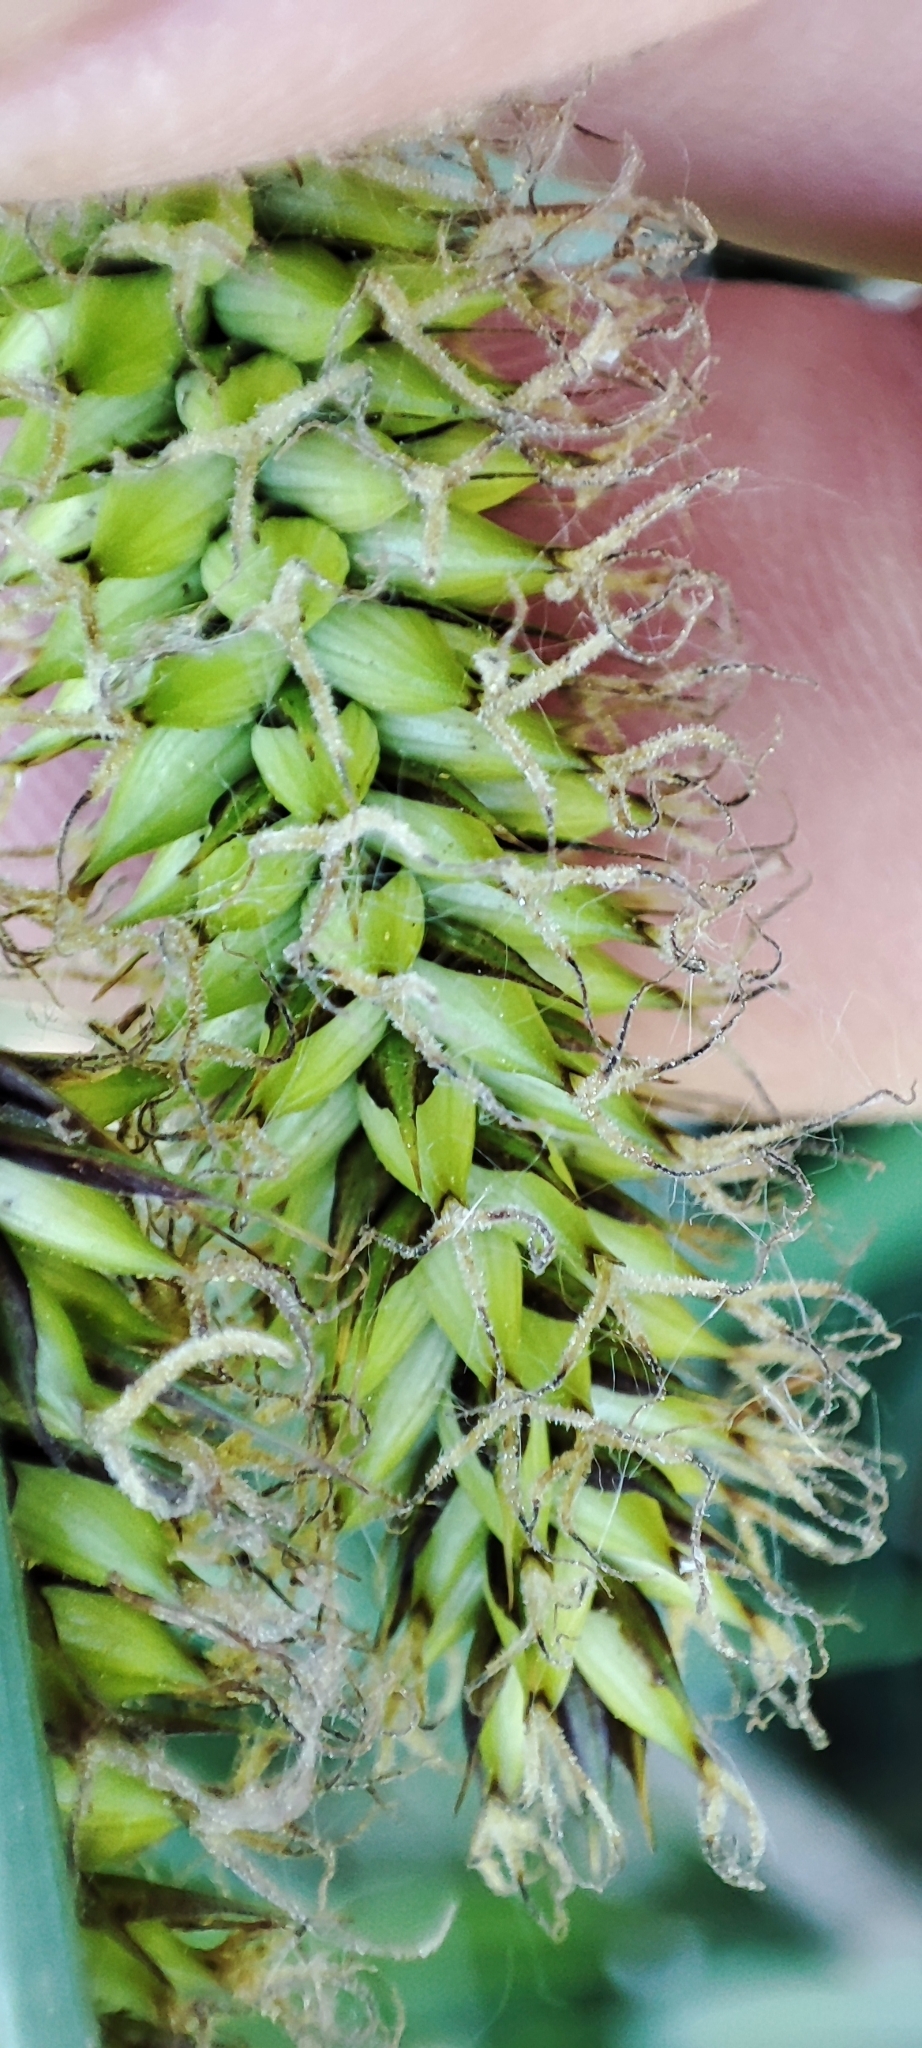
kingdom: Plantae
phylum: Tracheophyta
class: Liliopsida
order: Poales
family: Cyperaceae
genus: Carex
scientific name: Carex riparia
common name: Greater pond-sedge
